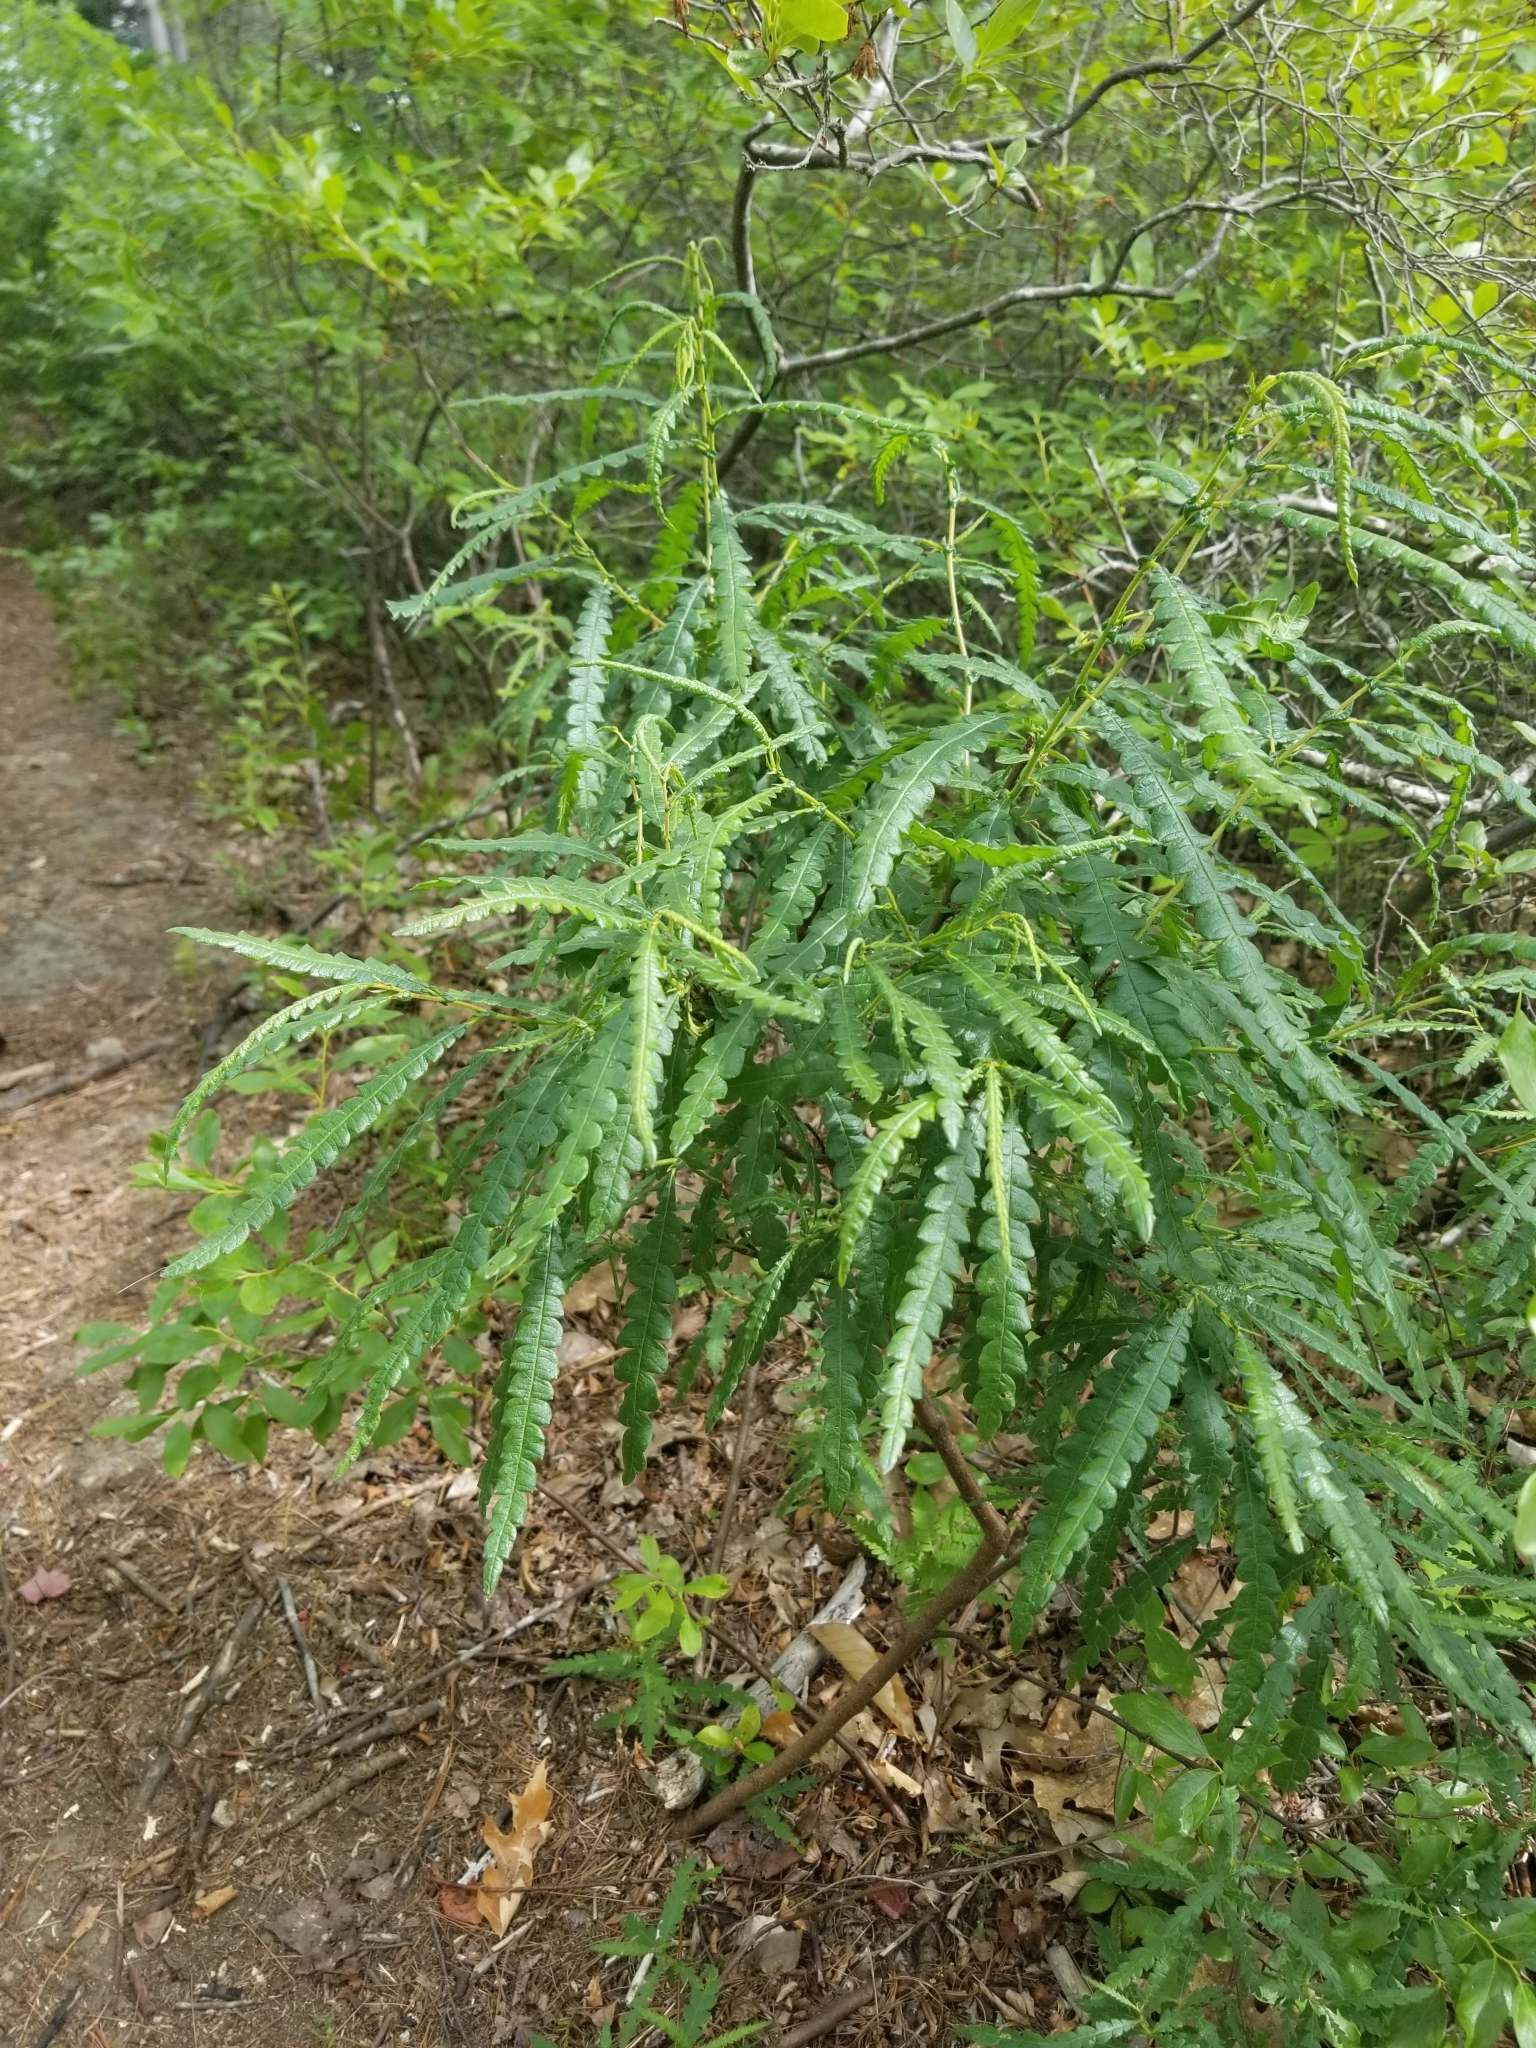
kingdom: Plantae
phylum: Tracheophyta
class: Magnoliopsida
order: Fagales
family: Myricaceae
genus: Comptonia
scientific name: Comptonia peregrina
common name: Sweet-fern
